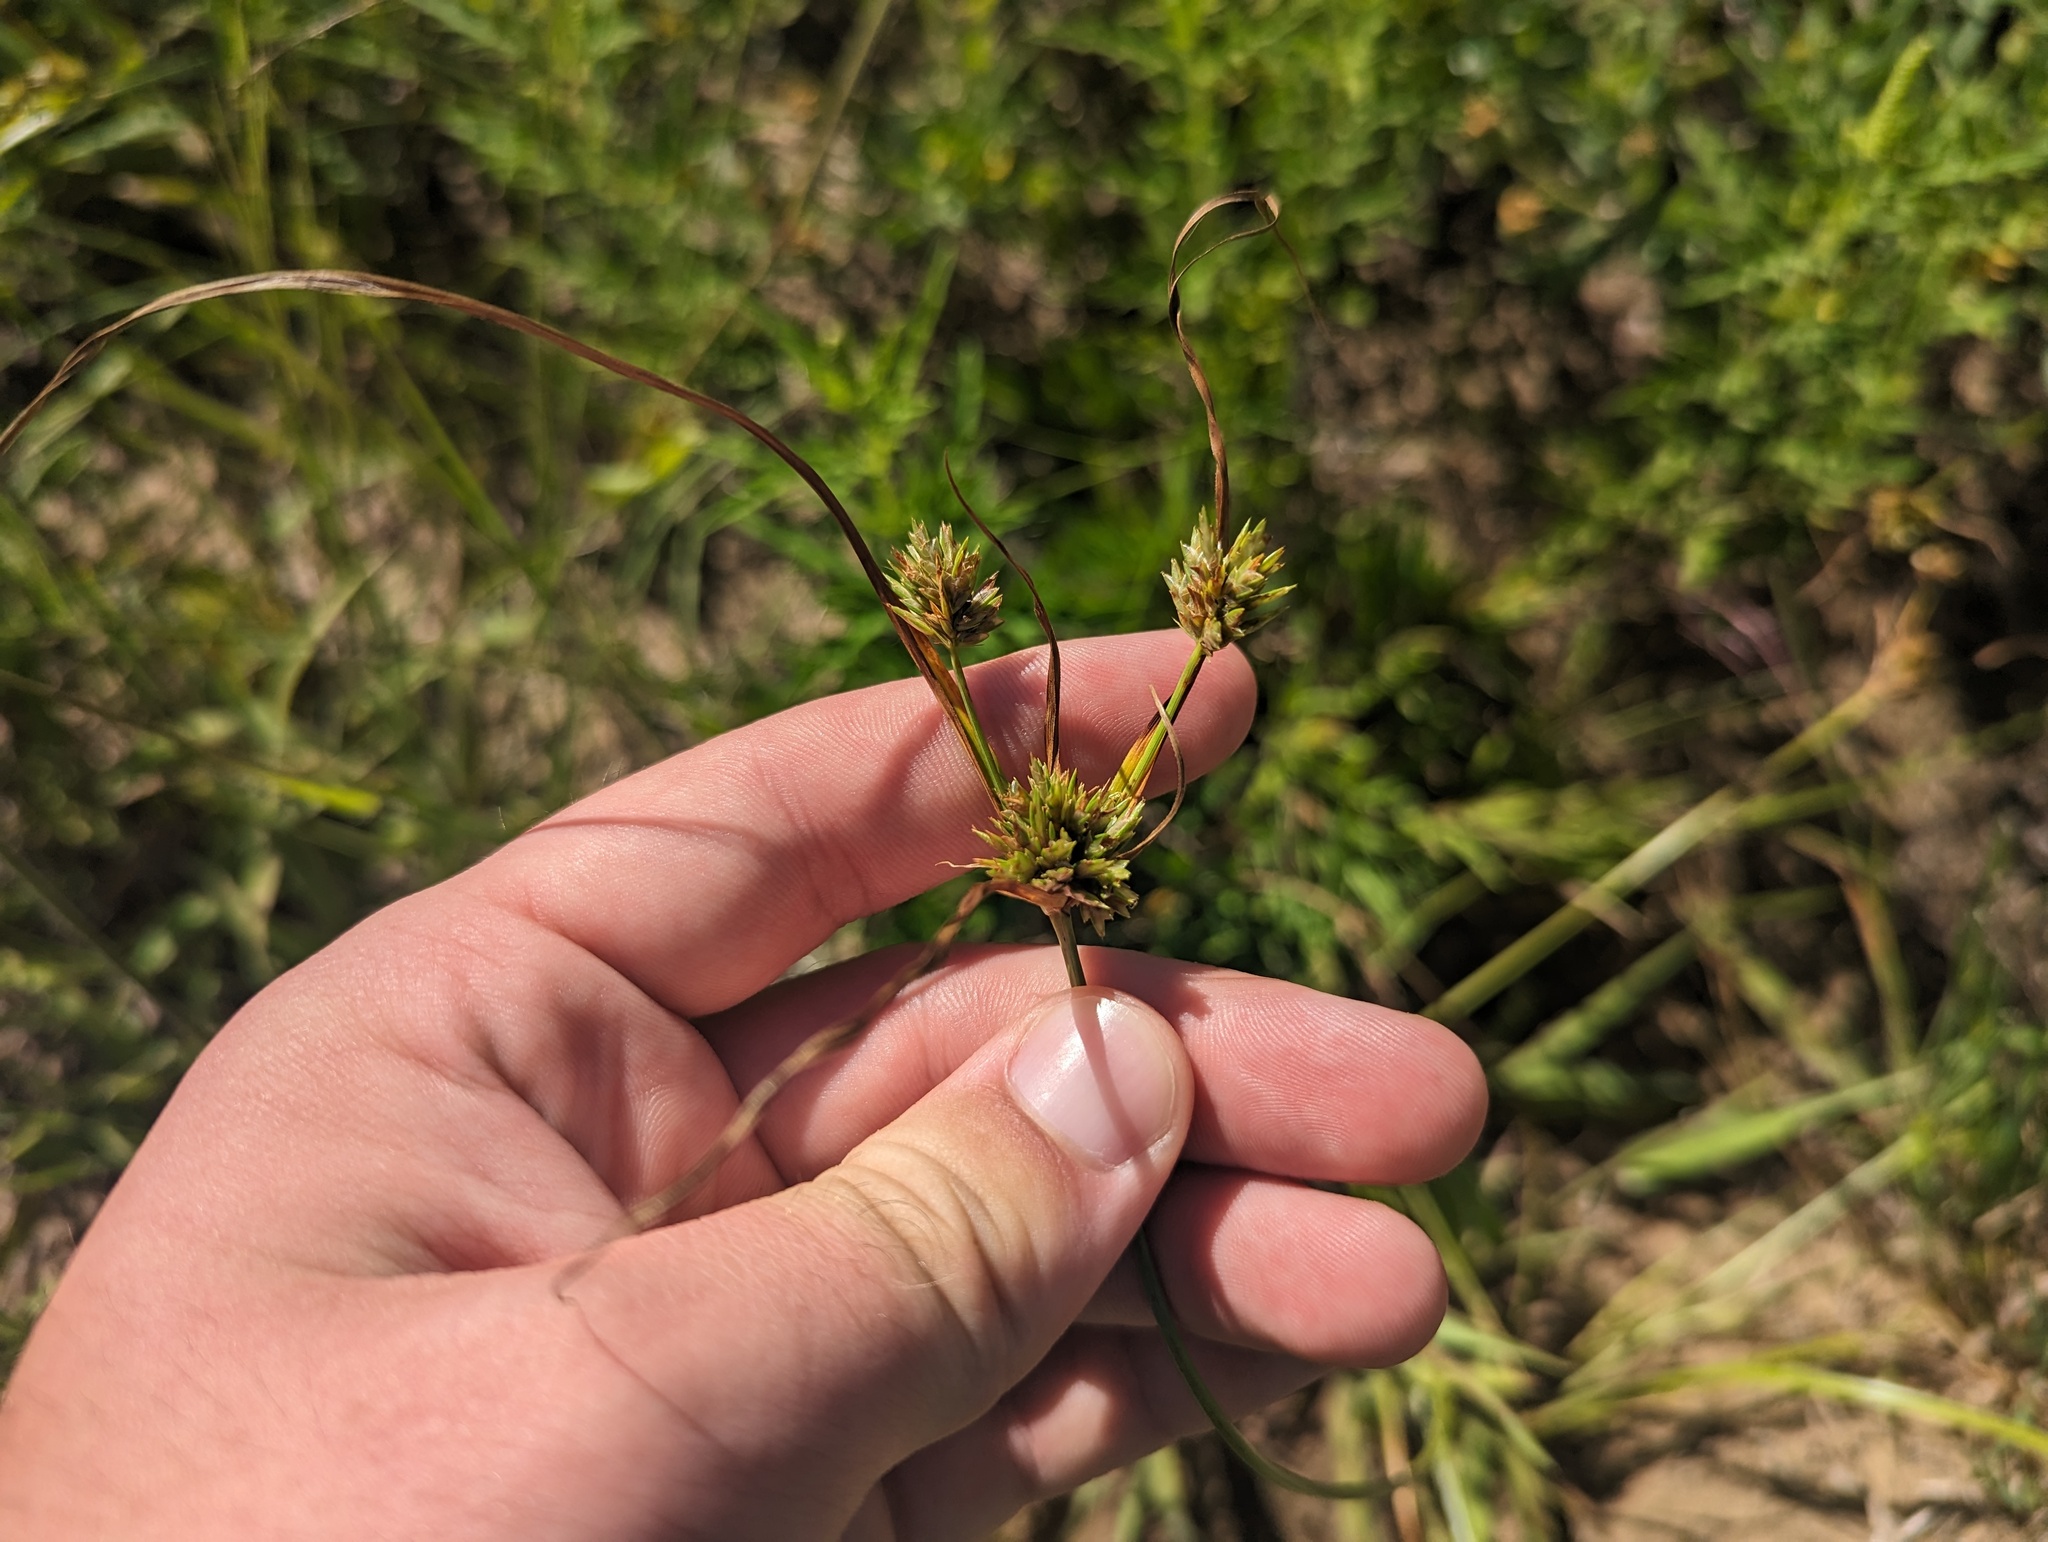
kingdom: Plantae
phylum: Tracheophyta
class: Liliopsida
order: Poales
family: Cyperaceae
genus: Cyperus
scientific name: Cyperus schweinitzii
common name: Schweinitz's cyperus
